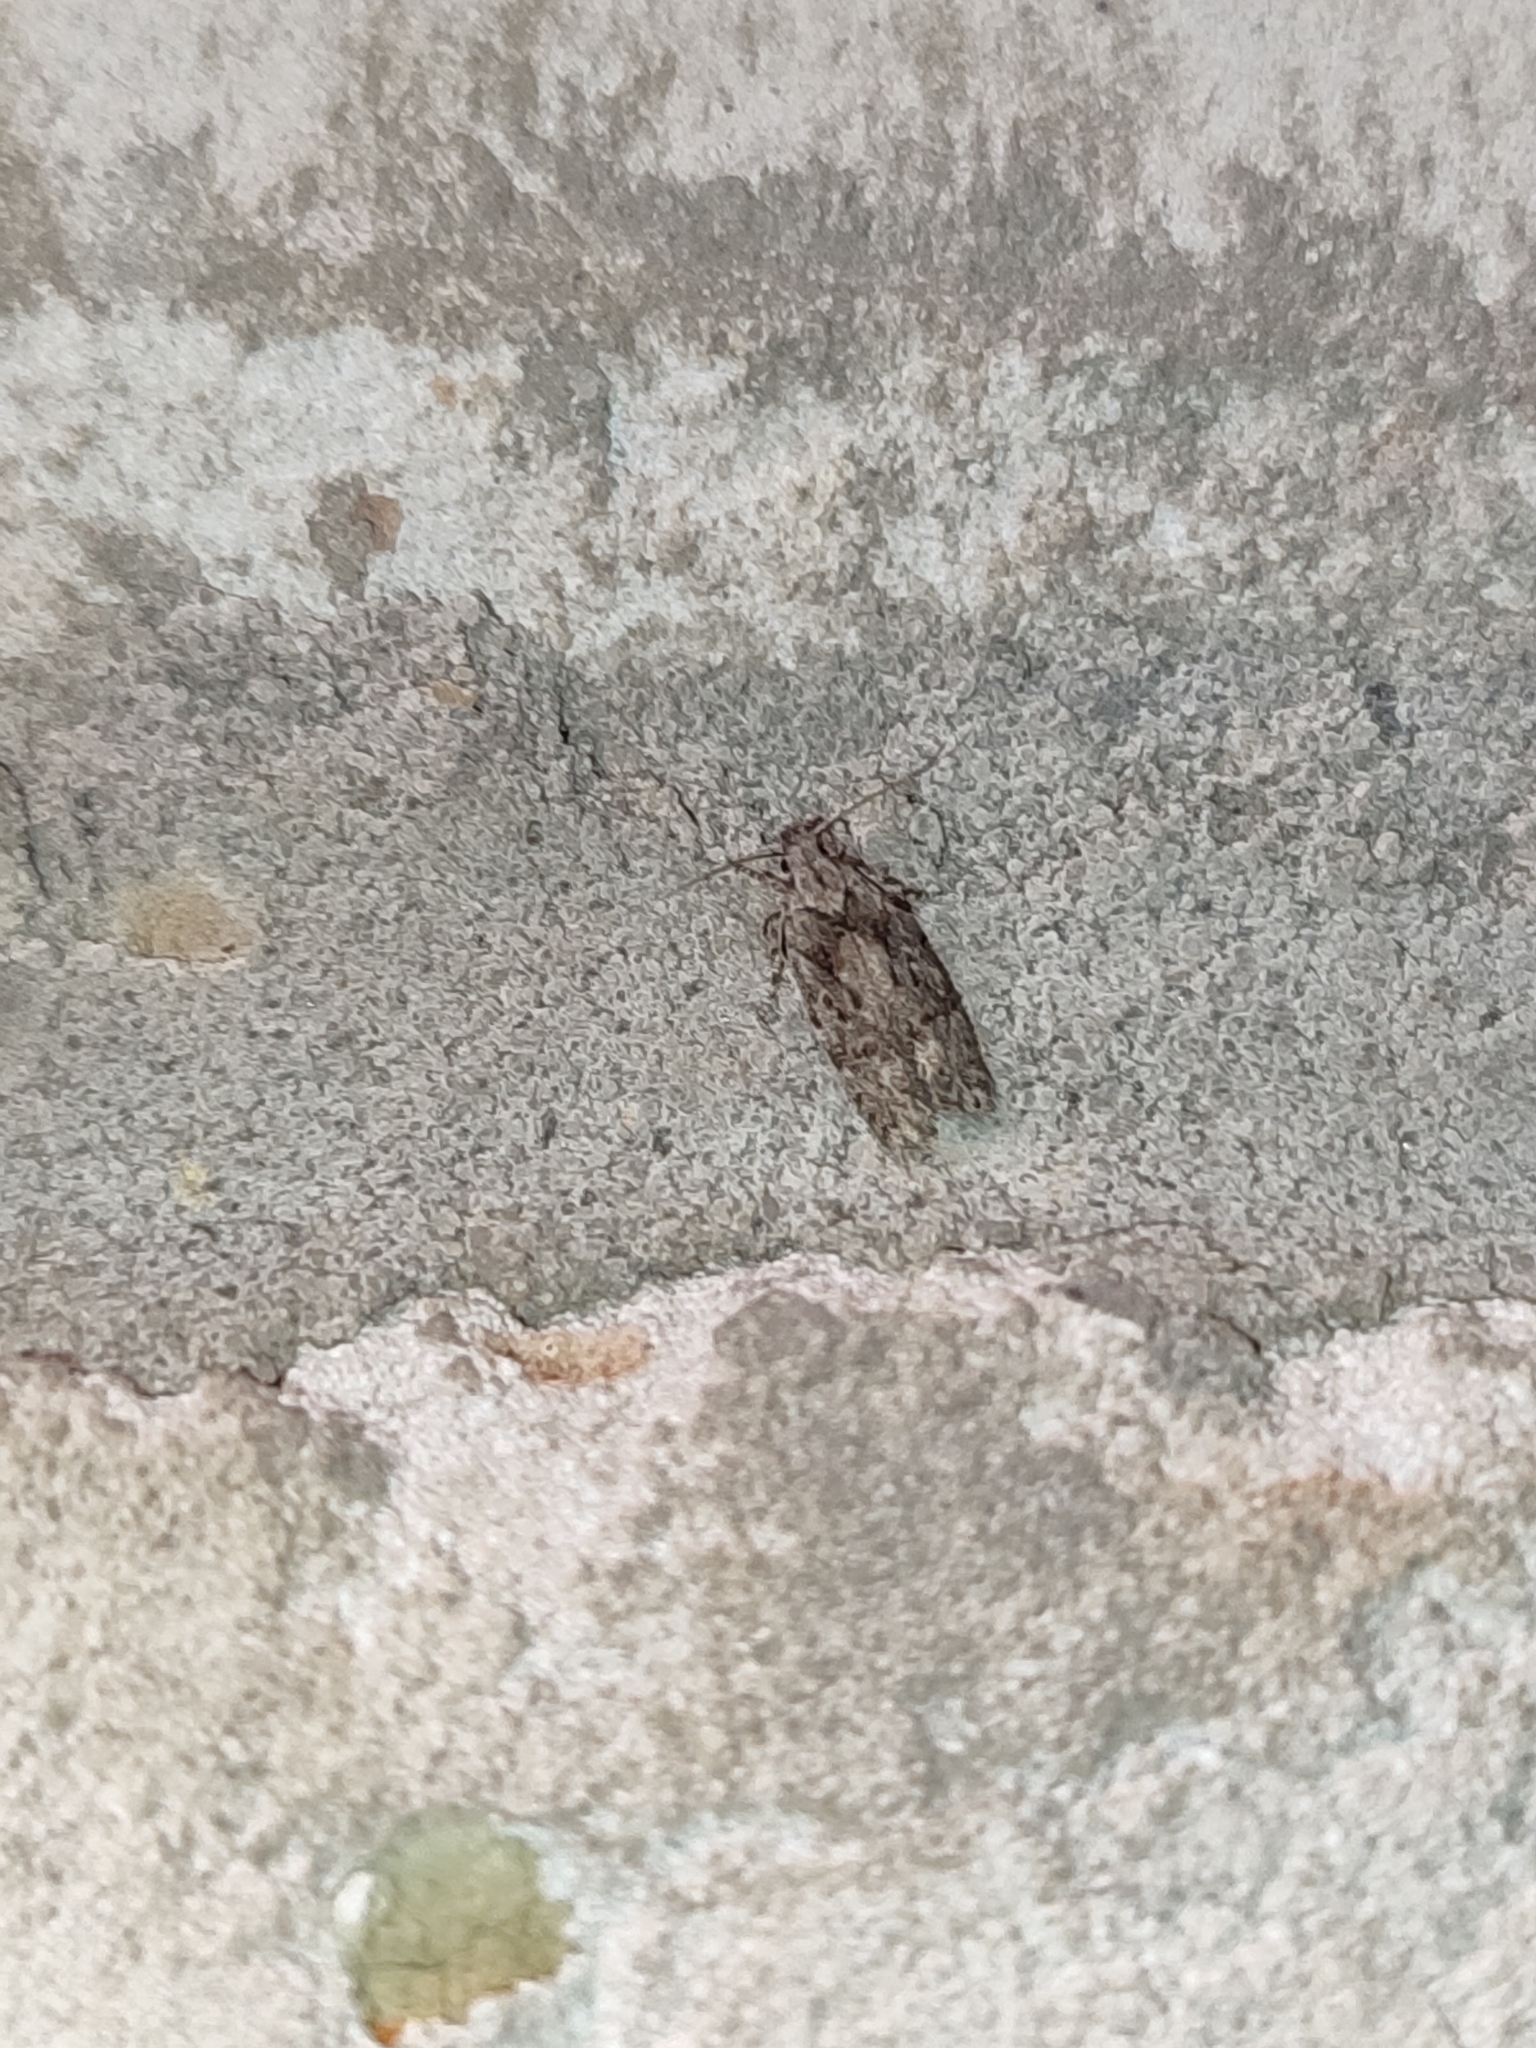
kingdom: Animalia
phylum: Arthropoda
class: Insecta
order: Lepidoptera
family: Gelechiidae
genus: Carpatolechia
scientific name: Carpatolechia fugitivella
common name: Elm groundling
